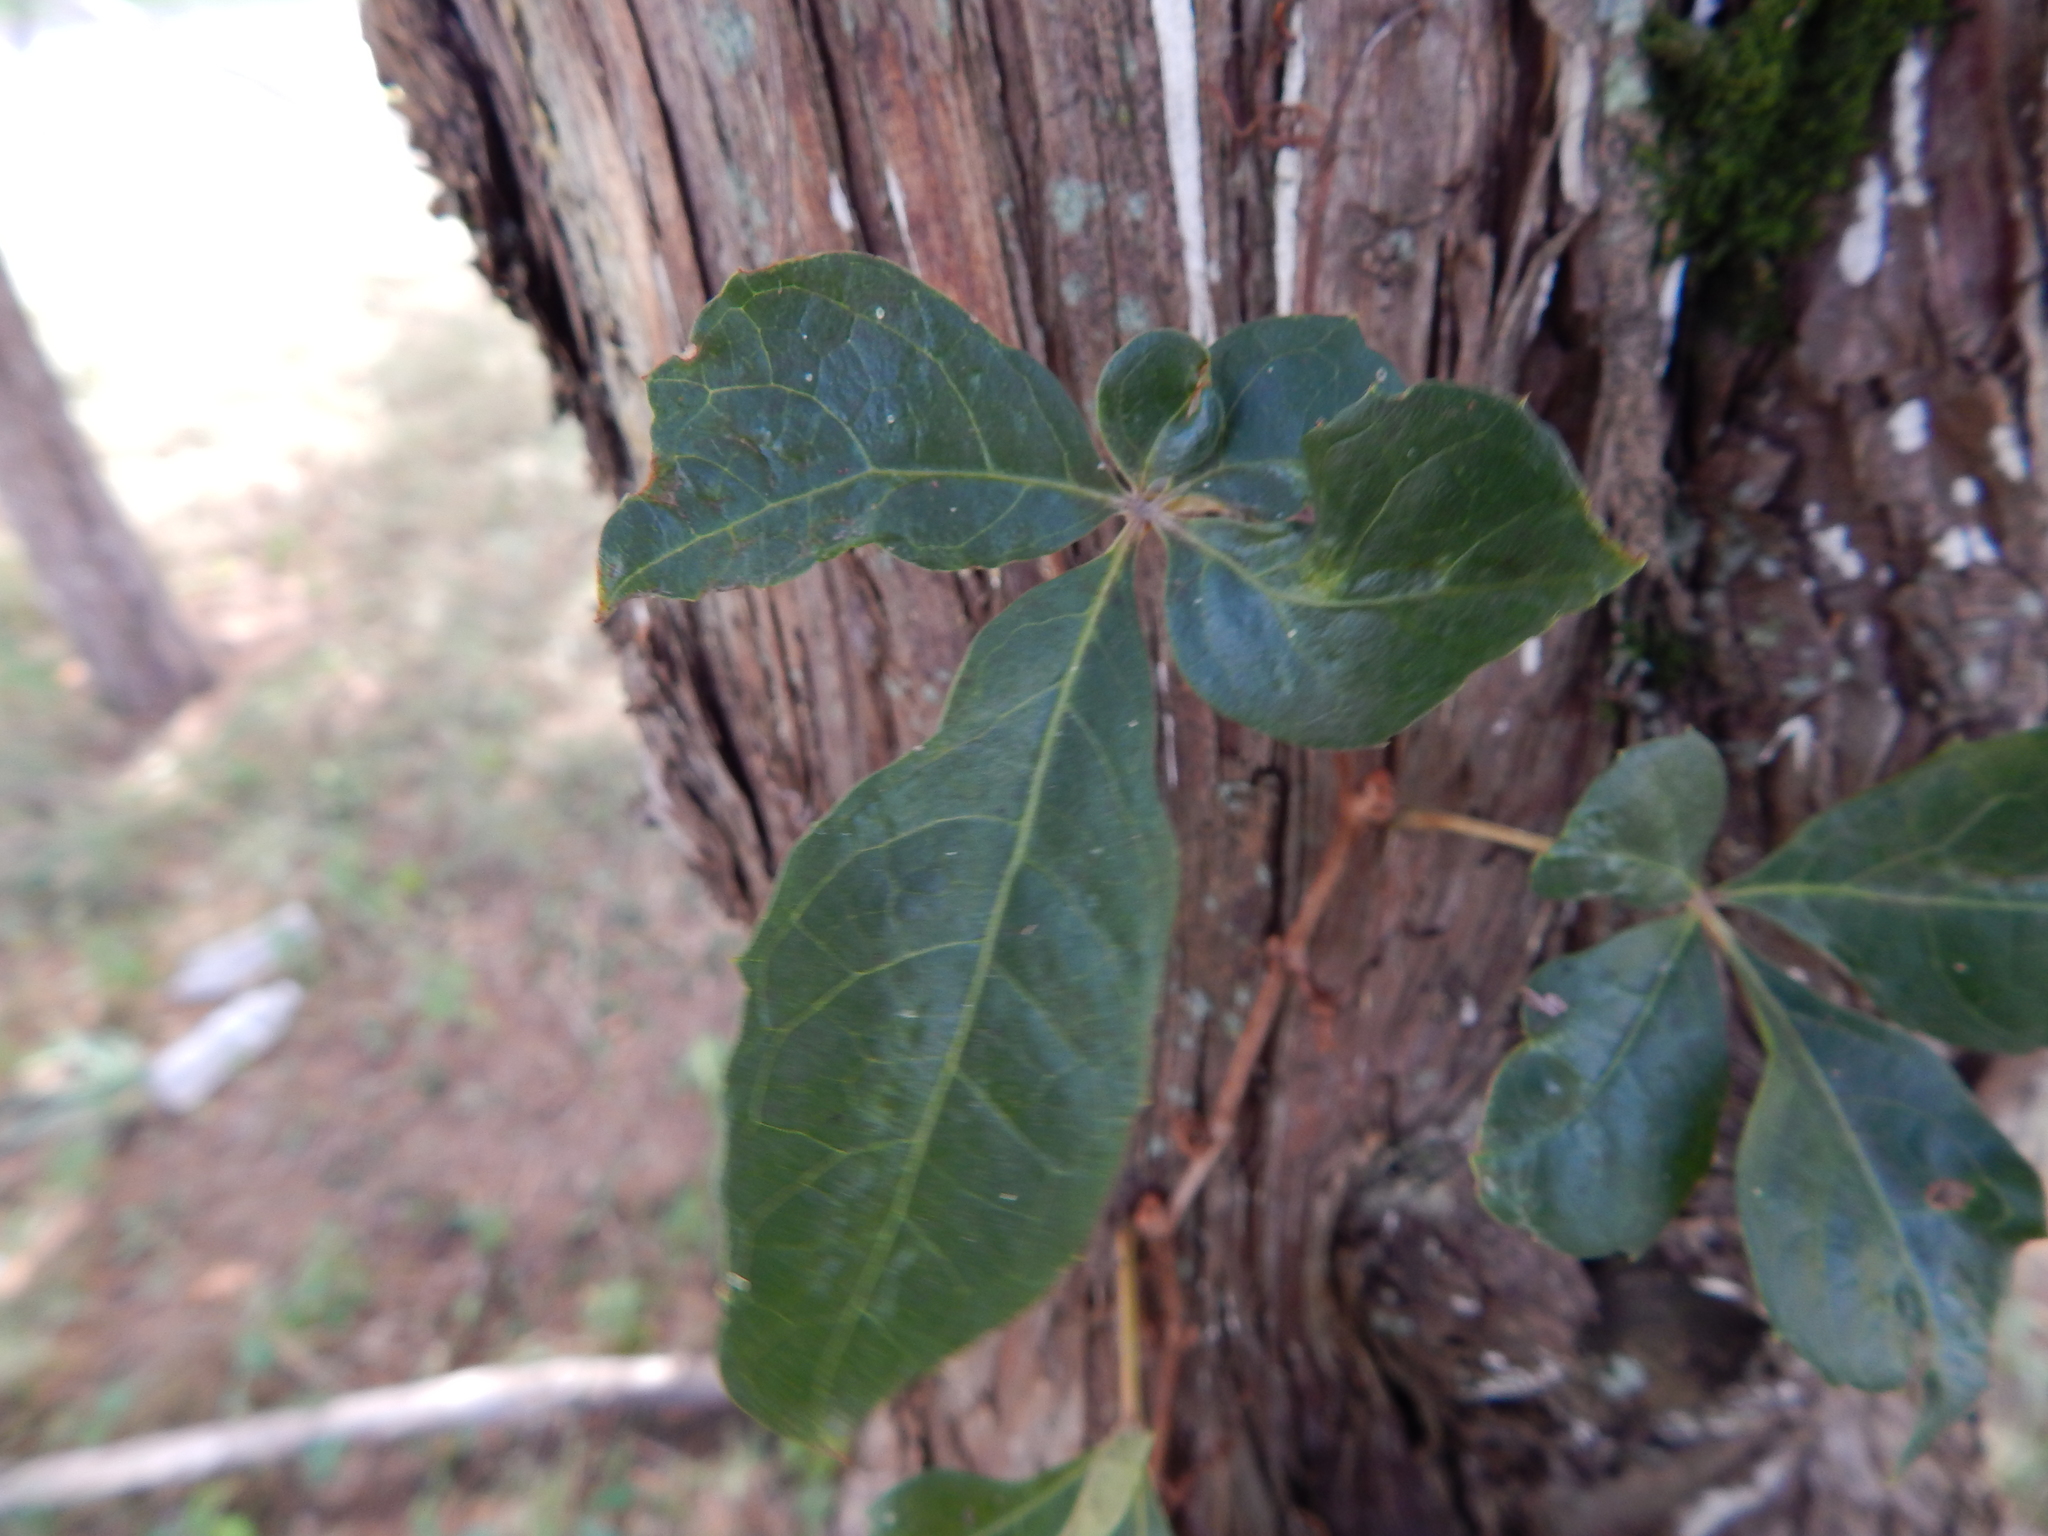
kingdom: Plantae
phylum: Tracheophyta
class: Magnoliopsida
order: Vitales
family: Vitaceae
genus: Parthenocissus
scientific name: Parthenocissus quinquefolia
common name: Virginia-creeper
